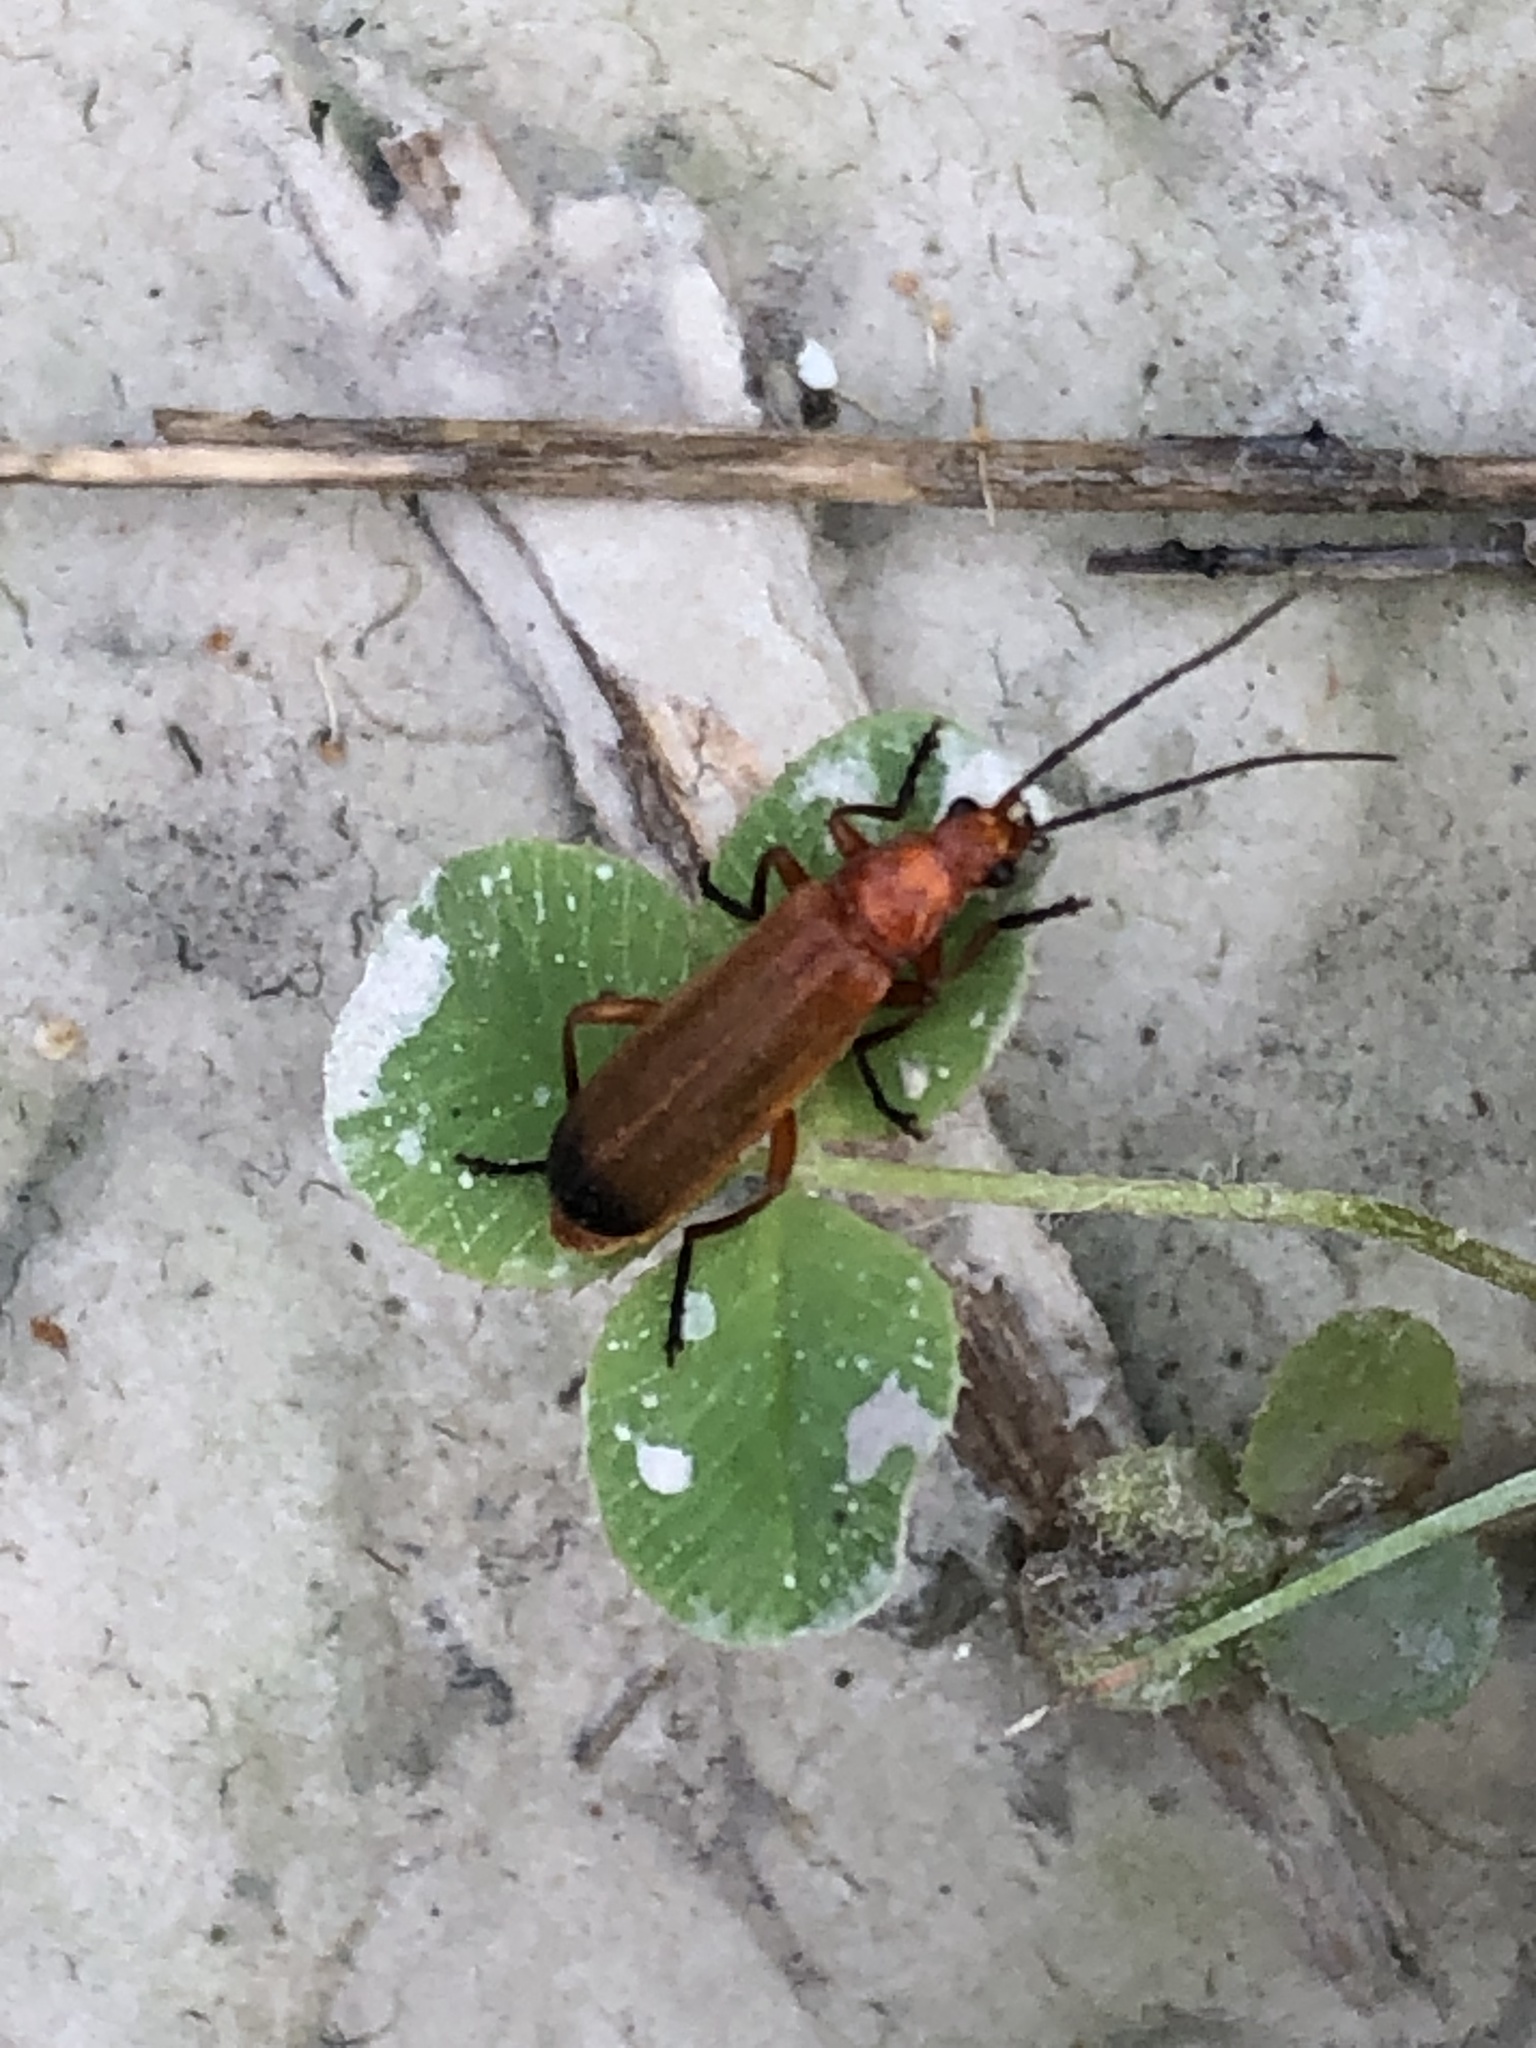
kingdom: Animalia
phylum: Arthropoda
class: Insecta
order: Coleoptera
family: Cantharidae
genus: Rhagonycha
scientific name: Rhagonycha fulva
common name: Common red soldier beetle
